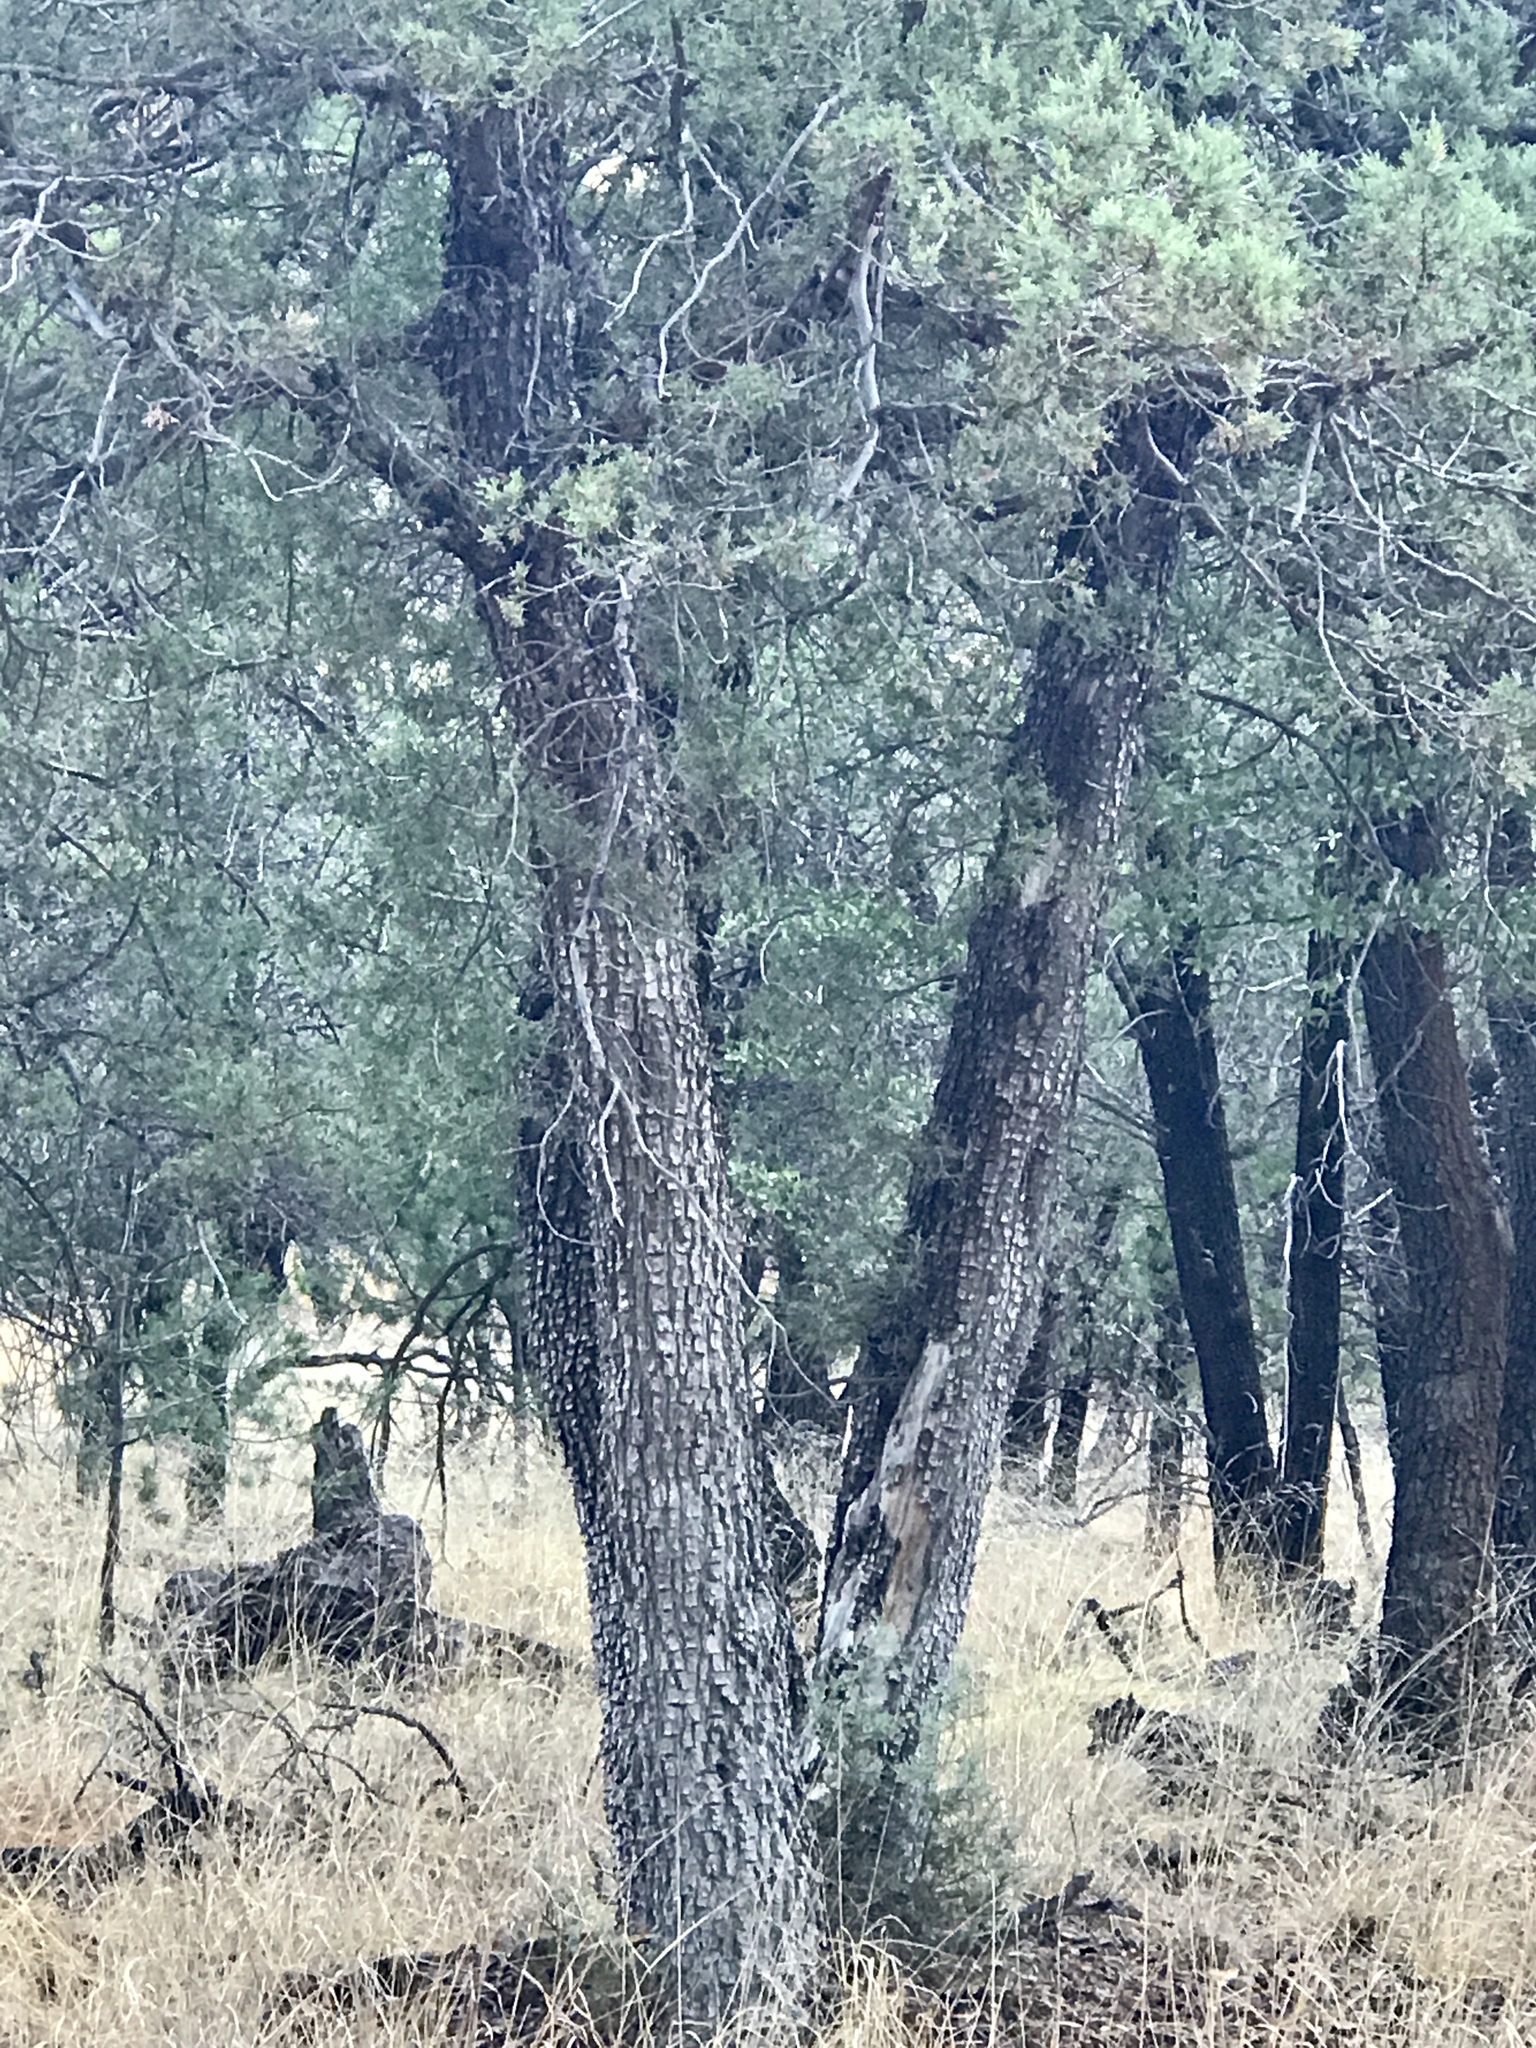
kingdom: Plantae
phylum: Tracheophyta
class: Pinopsida
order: Pinales
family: Cupressaceae
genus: Juniperus
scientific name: Juniperus deppeana
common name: Alligator juniper
